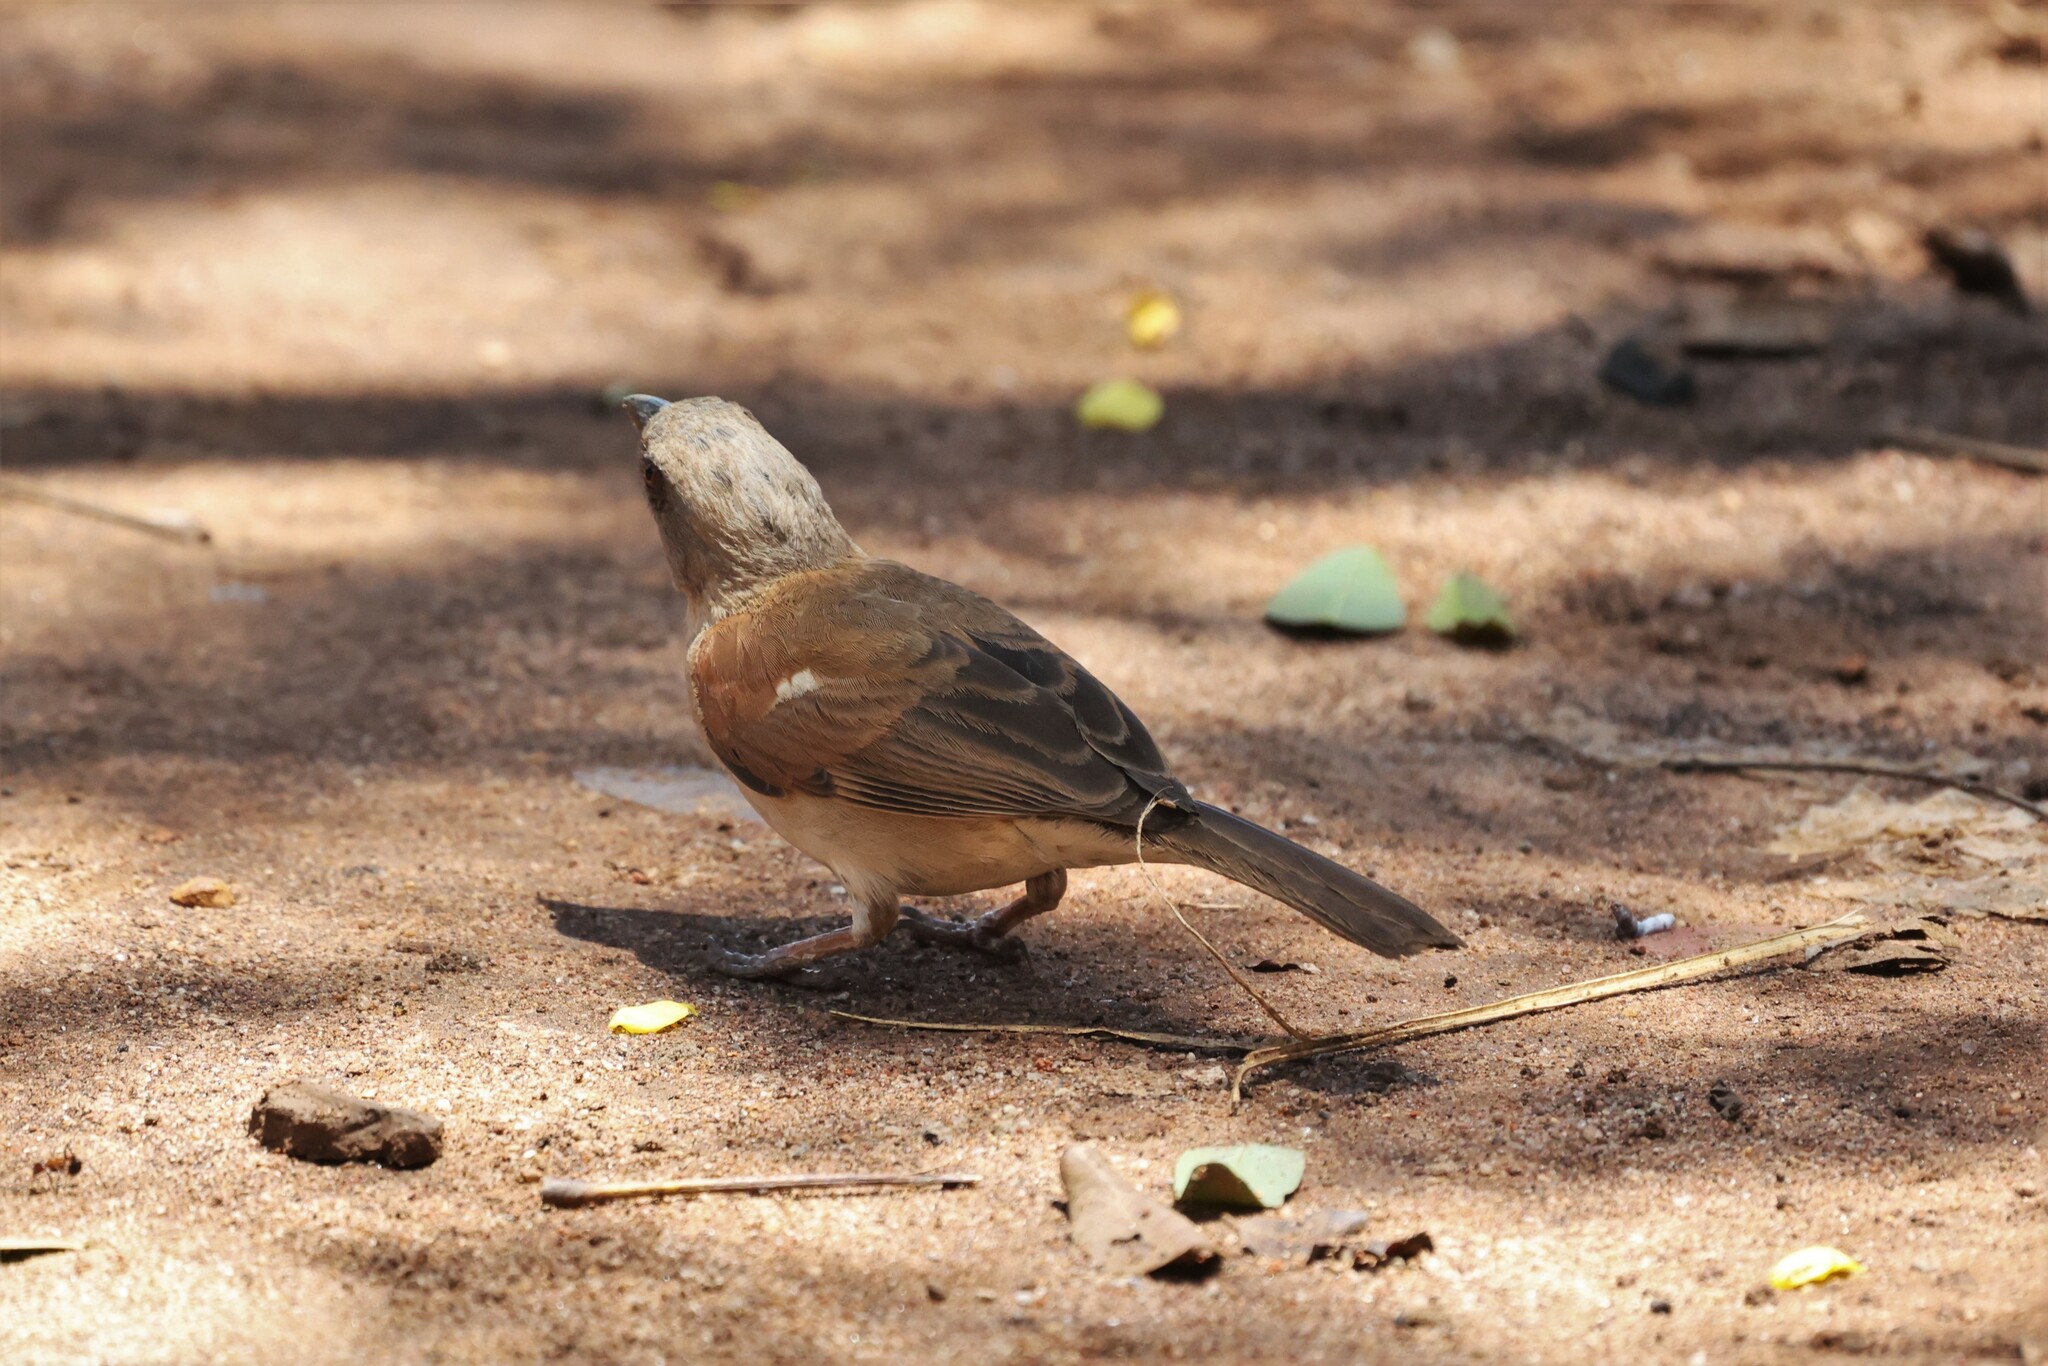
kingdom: Animalia
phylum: Chordata
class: Aves
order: Passeriformes
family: Passeridae
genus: Passer
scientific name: Passer griseus
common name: Northern grey-headed sparrow
